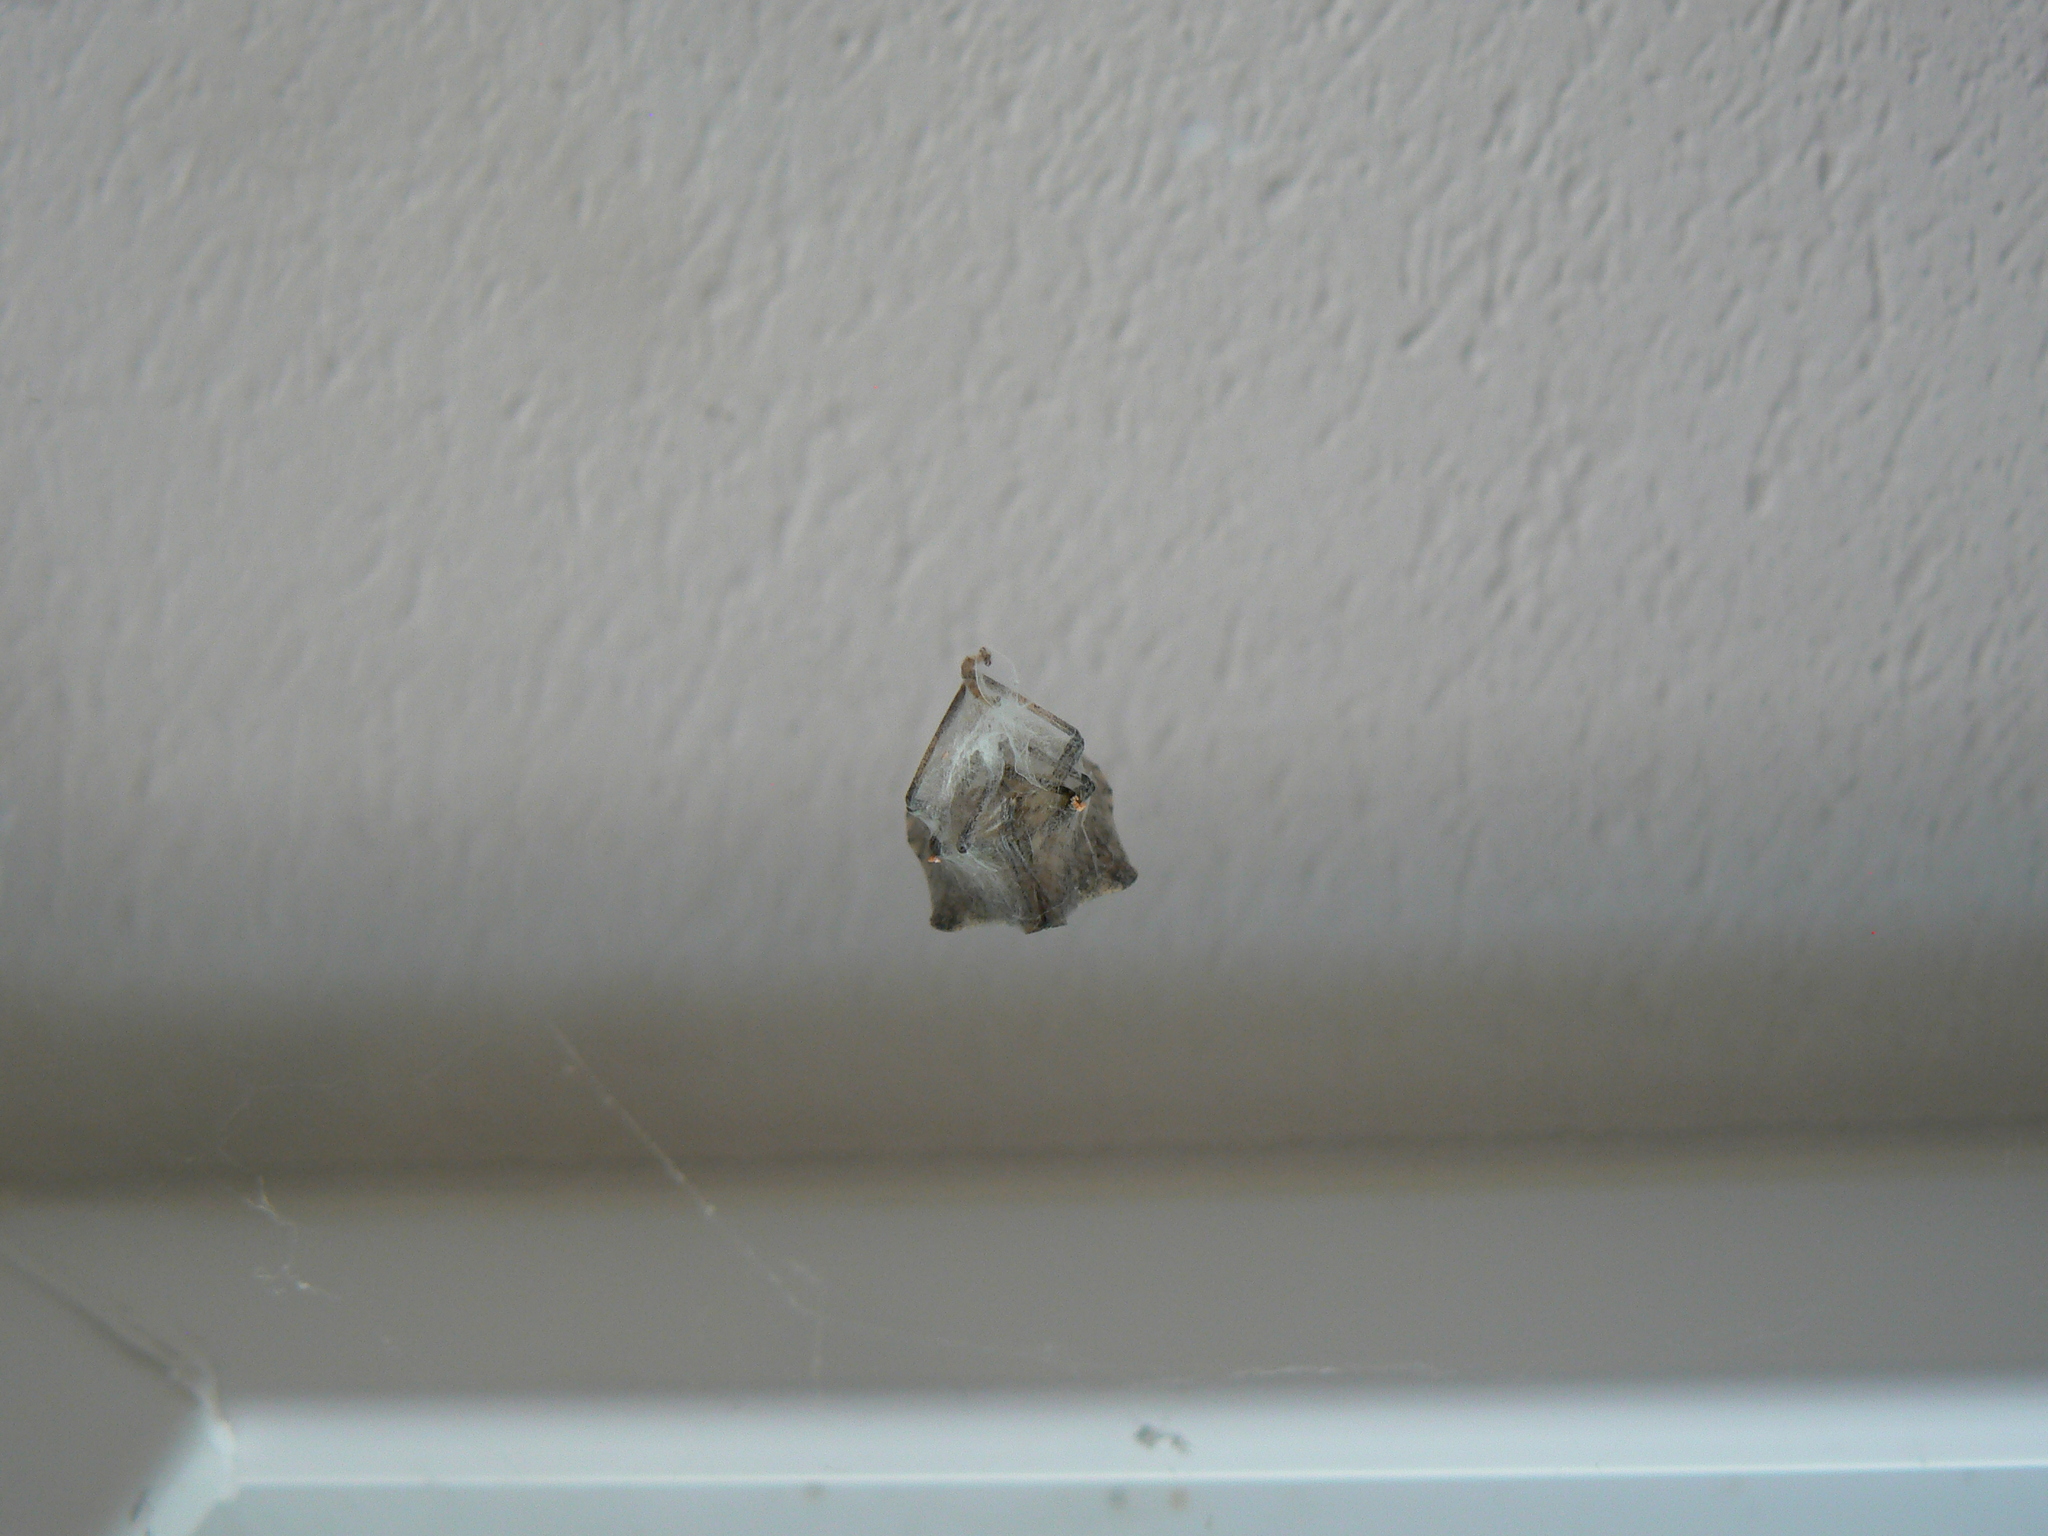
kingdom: Animalia
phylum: Arthropoda
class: Arachnida
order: Araneae
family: Pholcidae
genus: Pholcus
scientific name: Pholcus phalangioides
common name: Longbodied cellar spider
